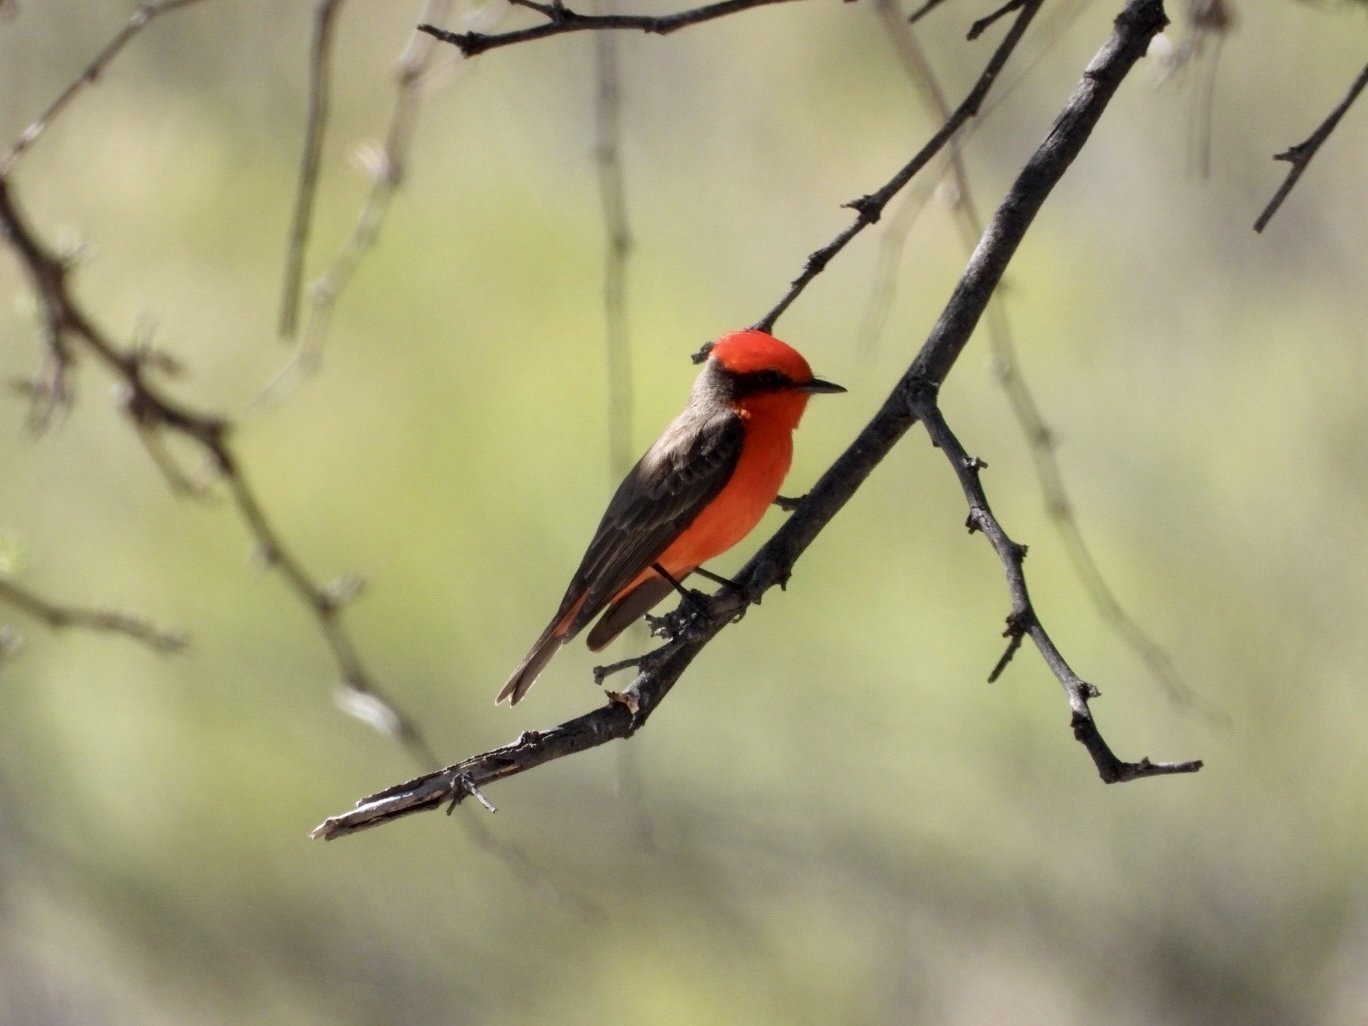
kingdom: Animalia
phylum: Chordata
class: Aves
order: Passeriformes
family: Tyrannidae
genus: Pyrocephalus
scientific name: Pyrocephalus rubinus
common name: Vermilion flycatcher
